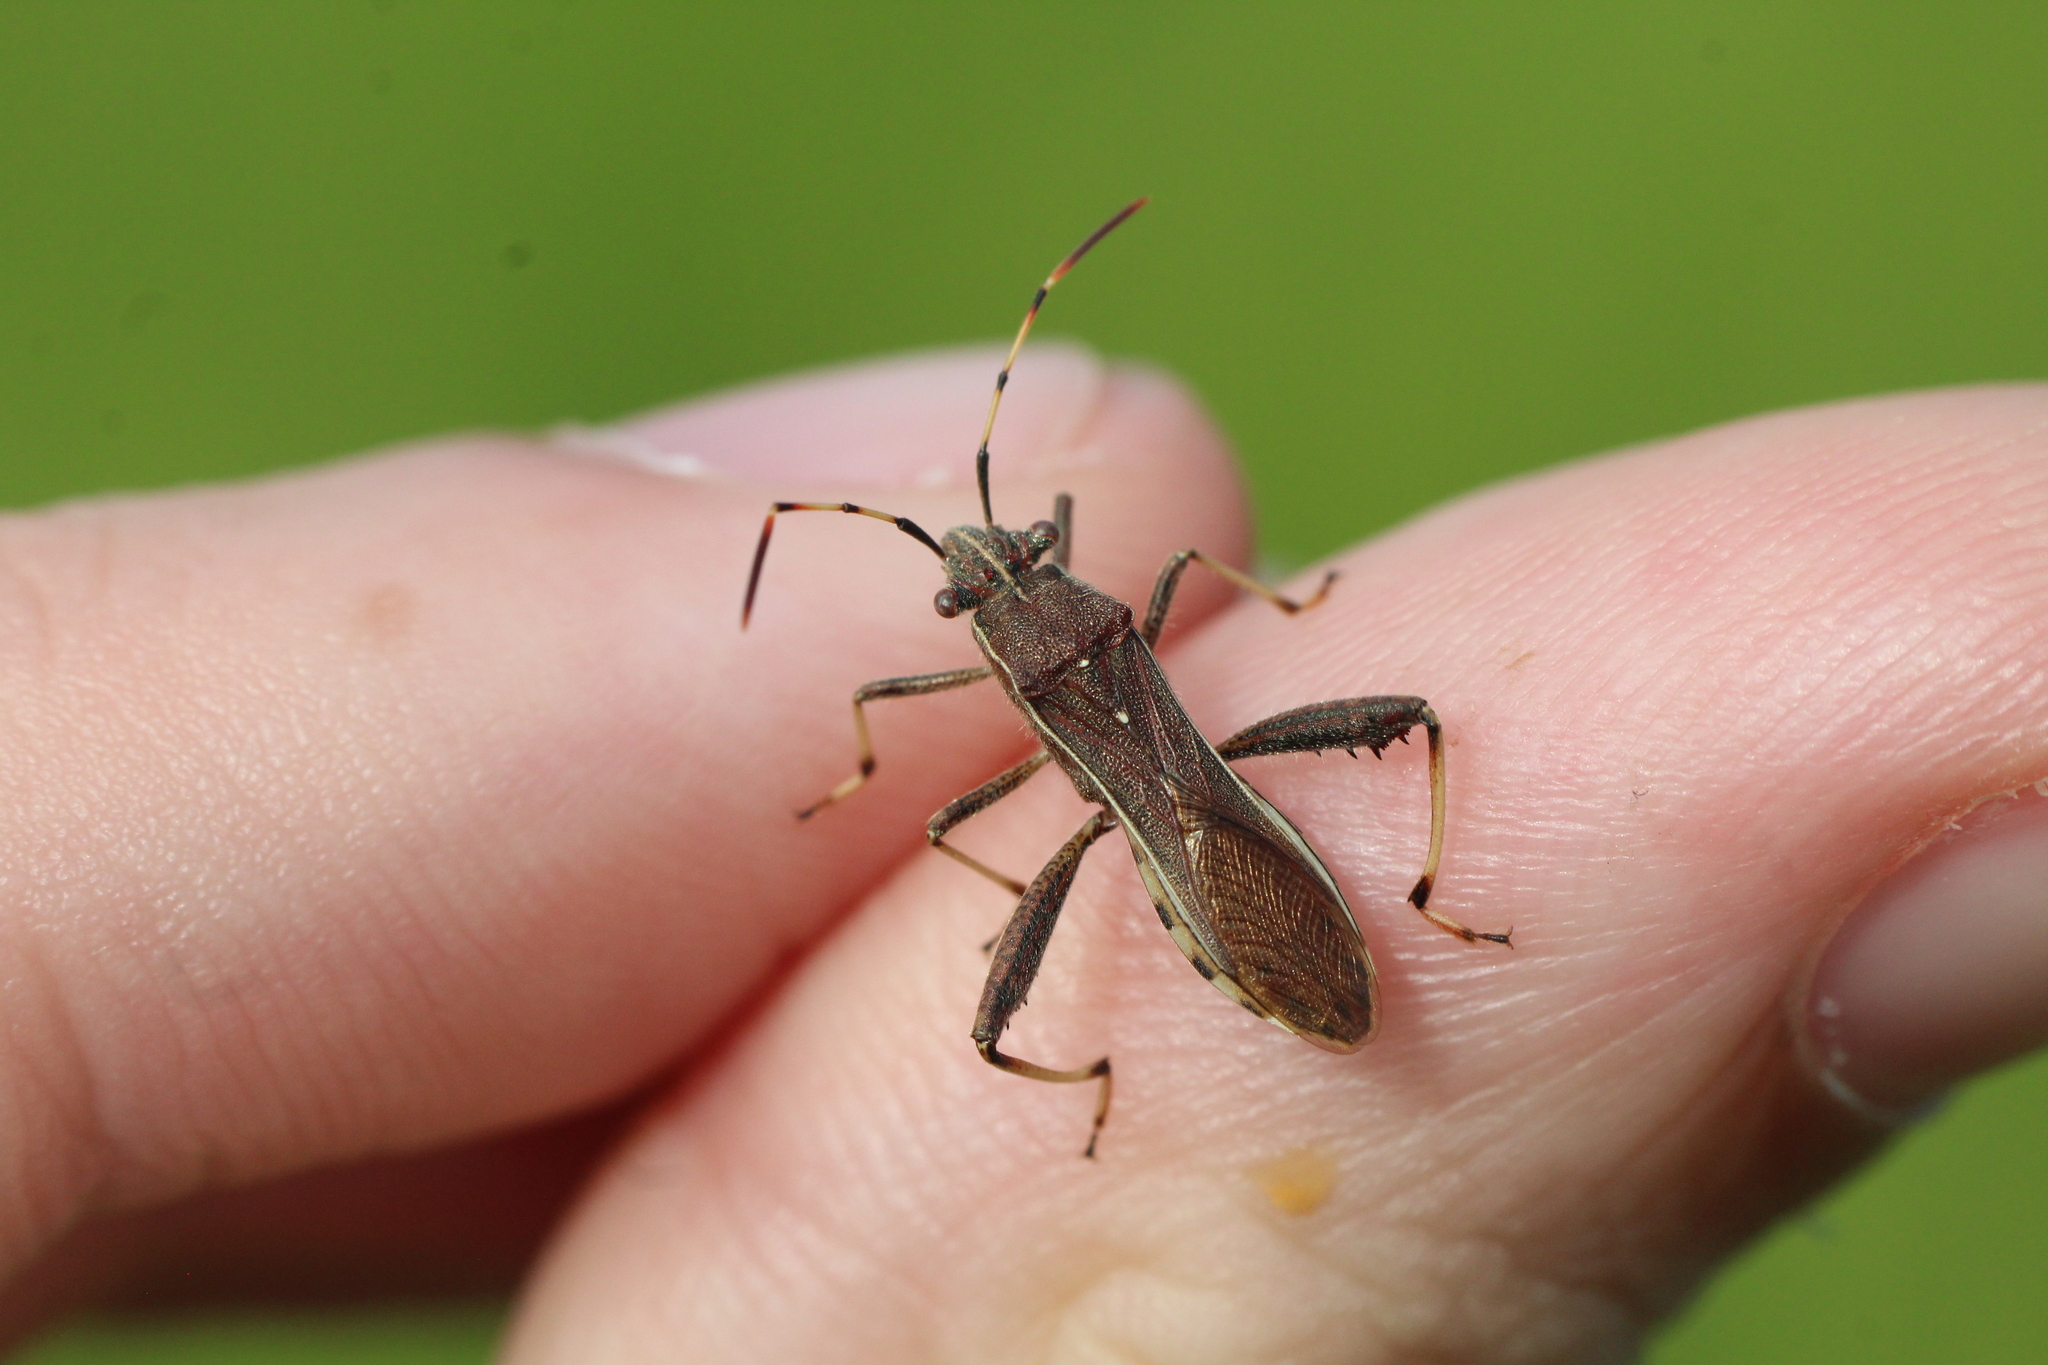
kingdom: Animalia
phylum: Arthropoda
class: Insecta
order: Hemiptera
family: Alydidae
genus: Camptopus
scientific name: Camptopus lateralis
